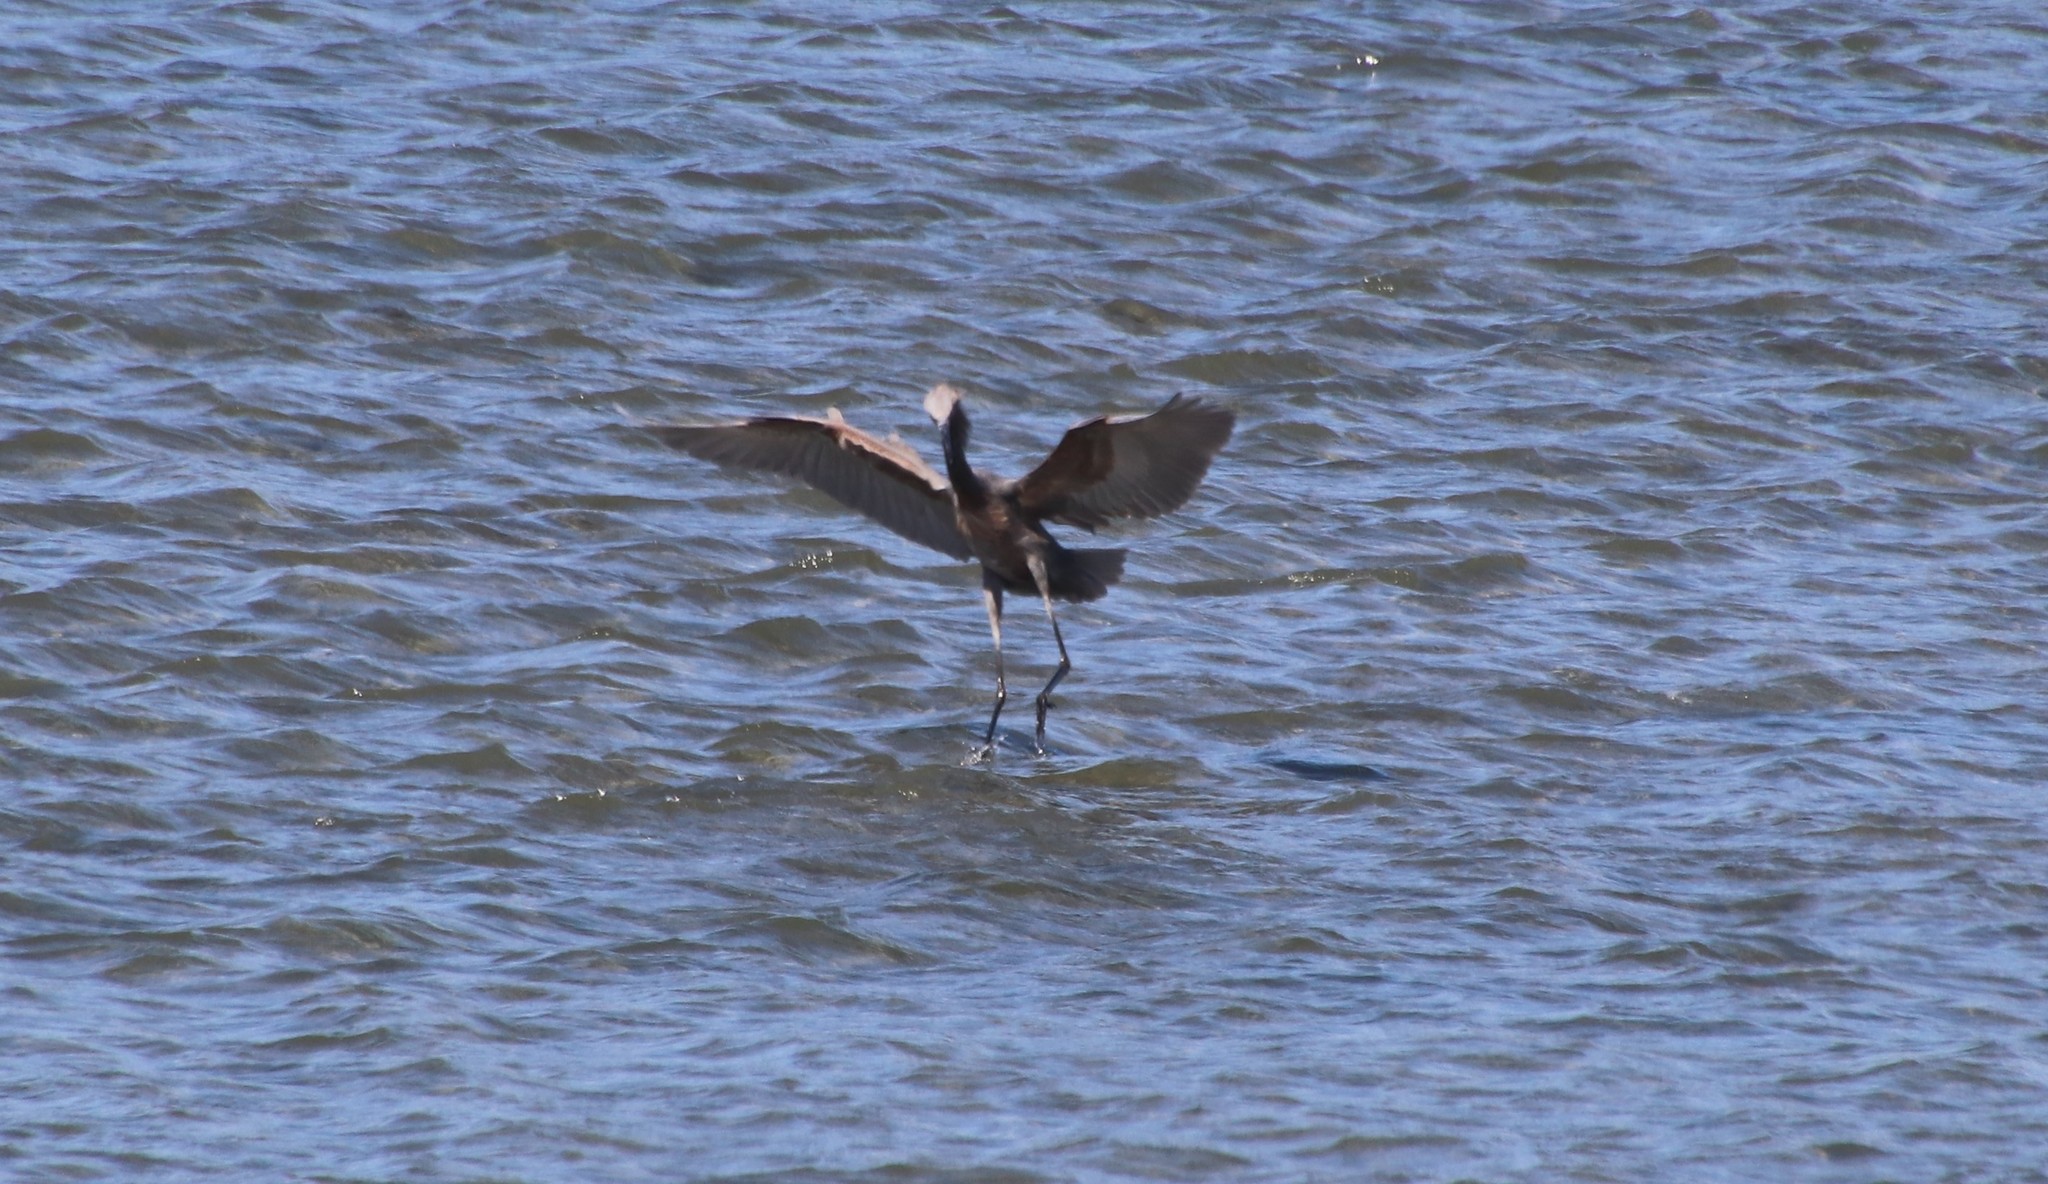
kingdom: Animalia
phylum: Chordata
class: Aves
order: Pelecaniformes
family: Ardeidae
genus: Egretta
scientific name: Egretta rufescens
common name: Reddish egret
